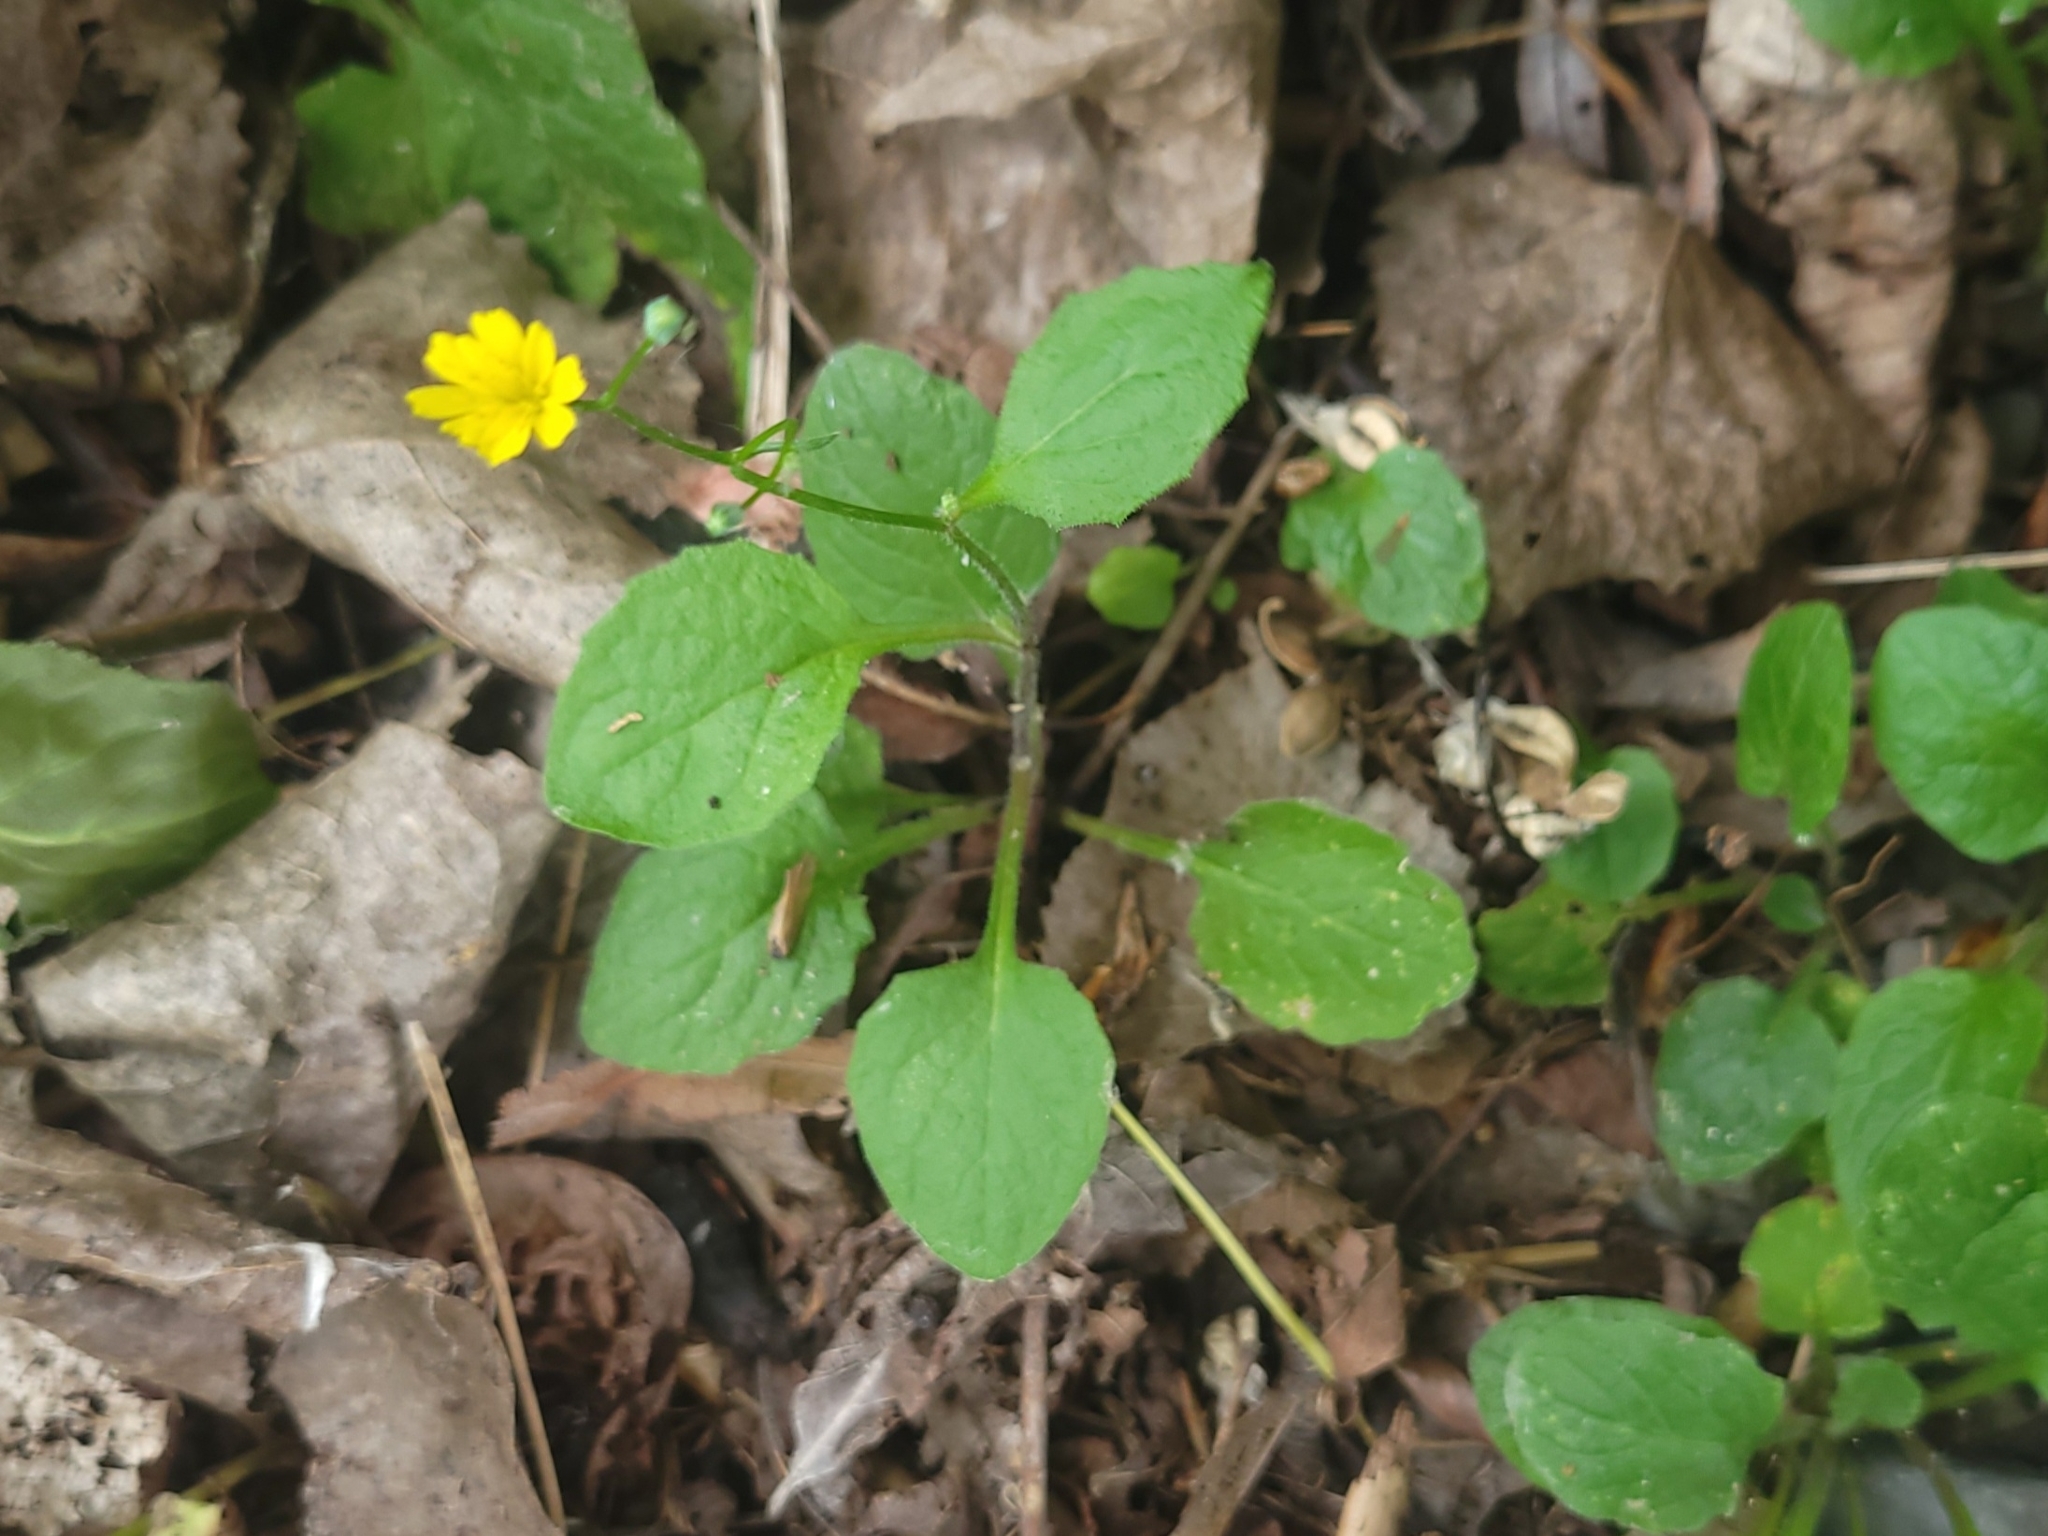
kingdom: Plantae
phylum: Tracheophyta
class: Magnoliopsida
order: Asterales
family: Asteraceae
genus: Lapsana
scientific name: Lapsana communis
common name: Nipplewort
